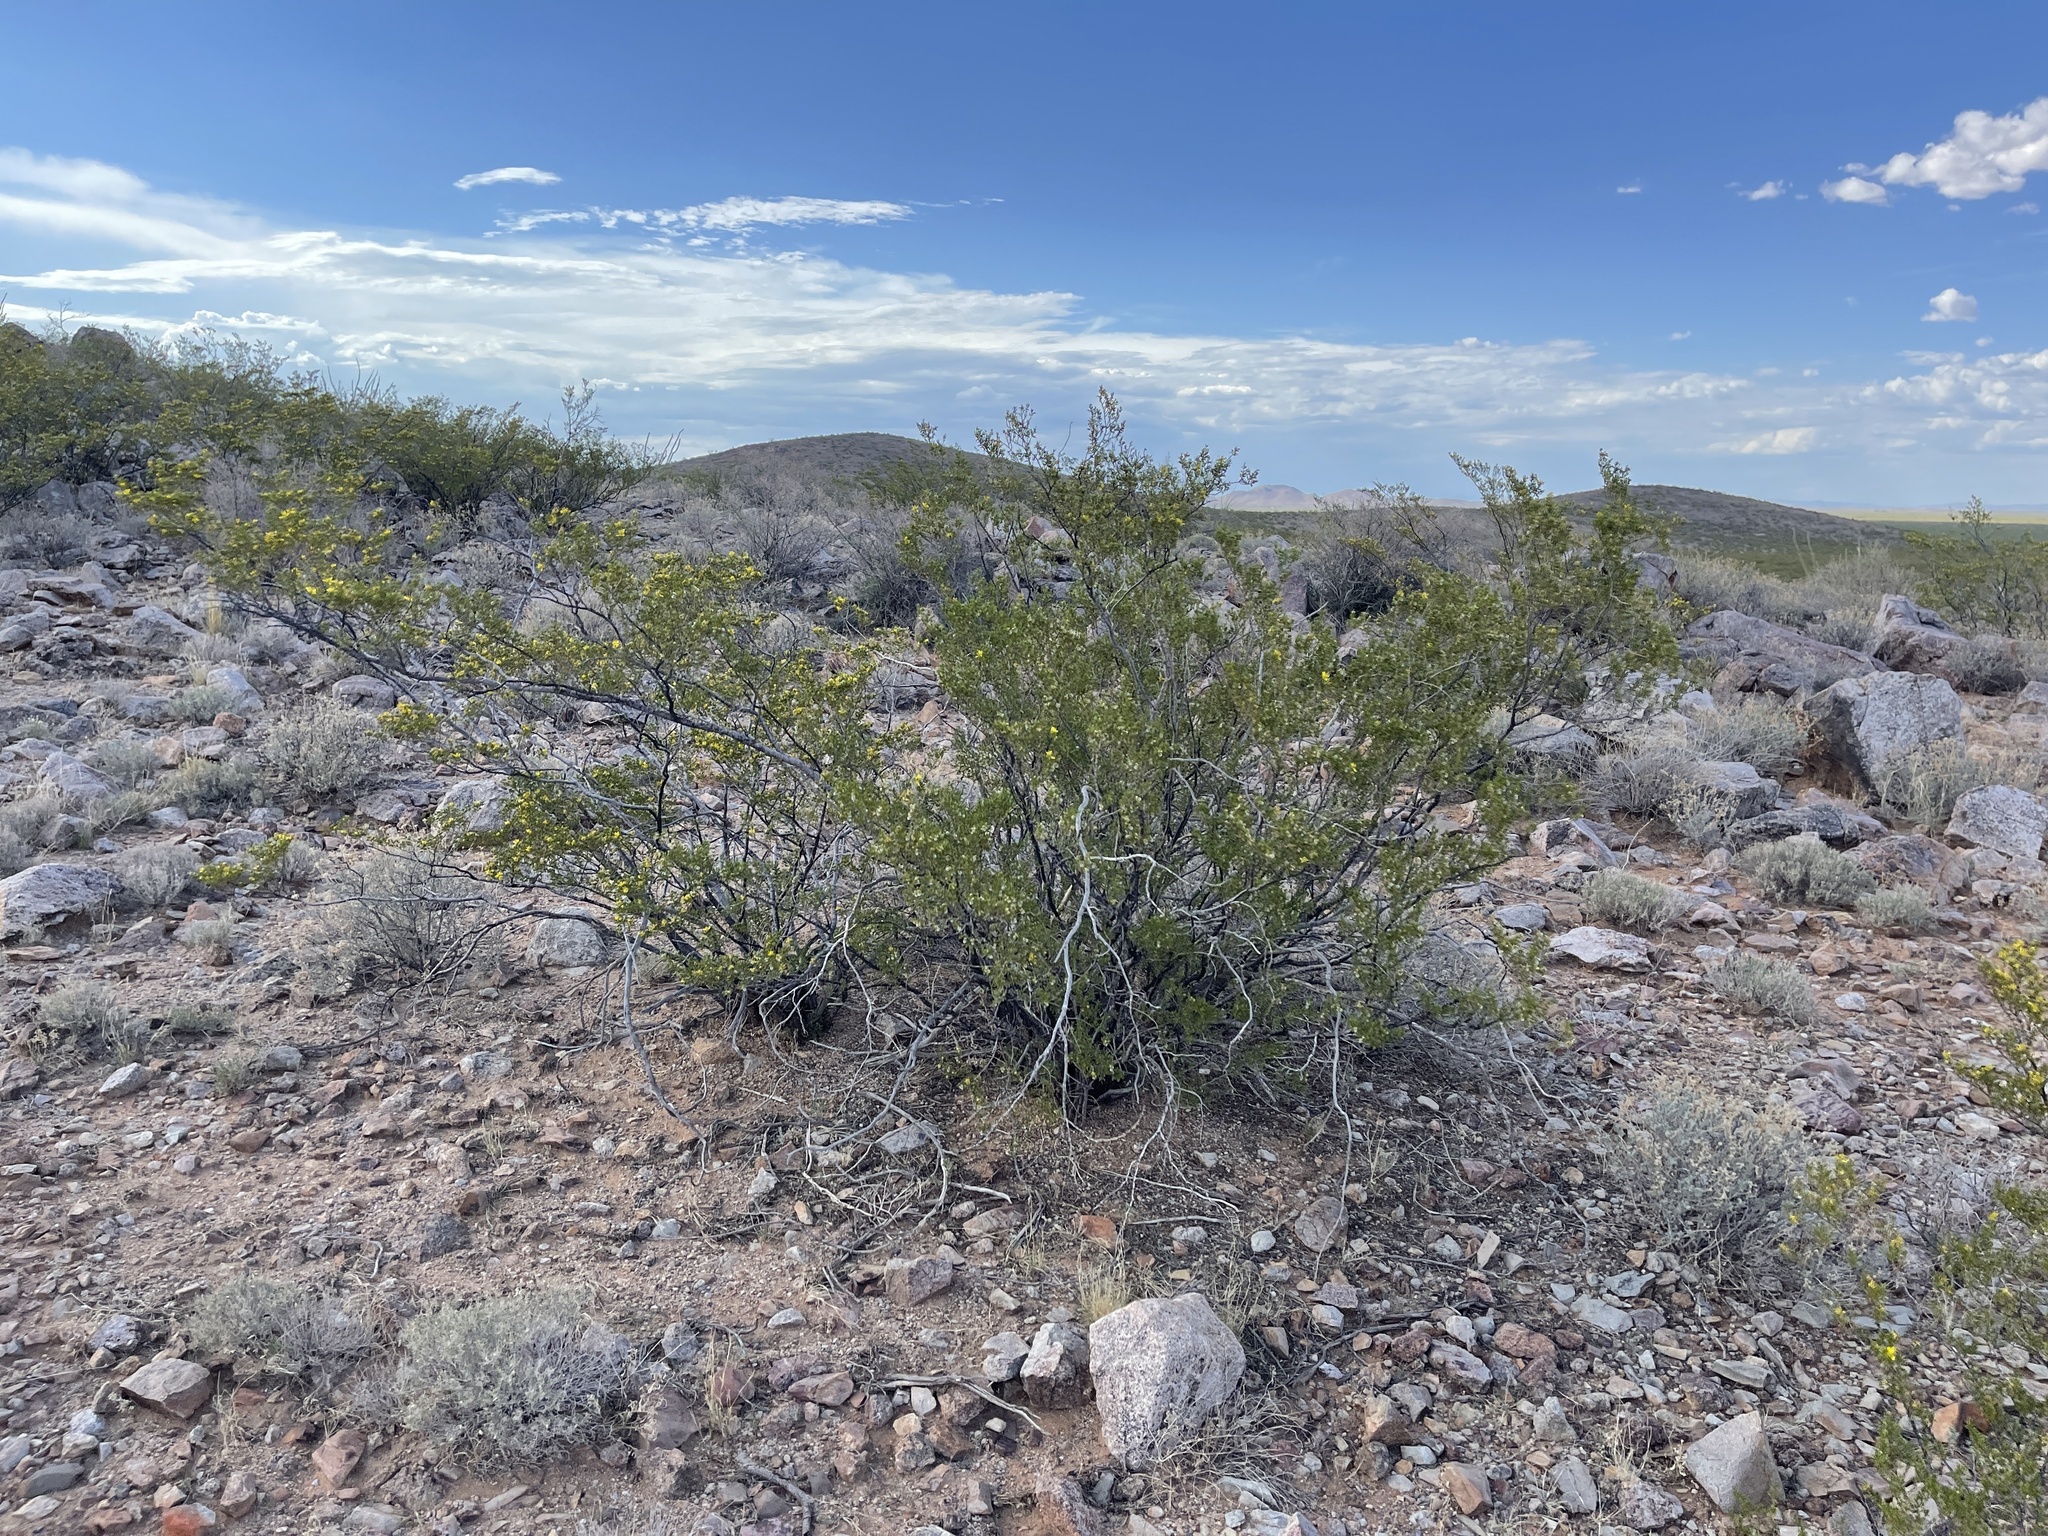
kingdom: Plantae
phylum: Tracheophyta
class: Magnoliopsida
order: Zygophyllales
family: Zygophyllaceae
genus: Larrea
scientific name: Larrea tridentata
